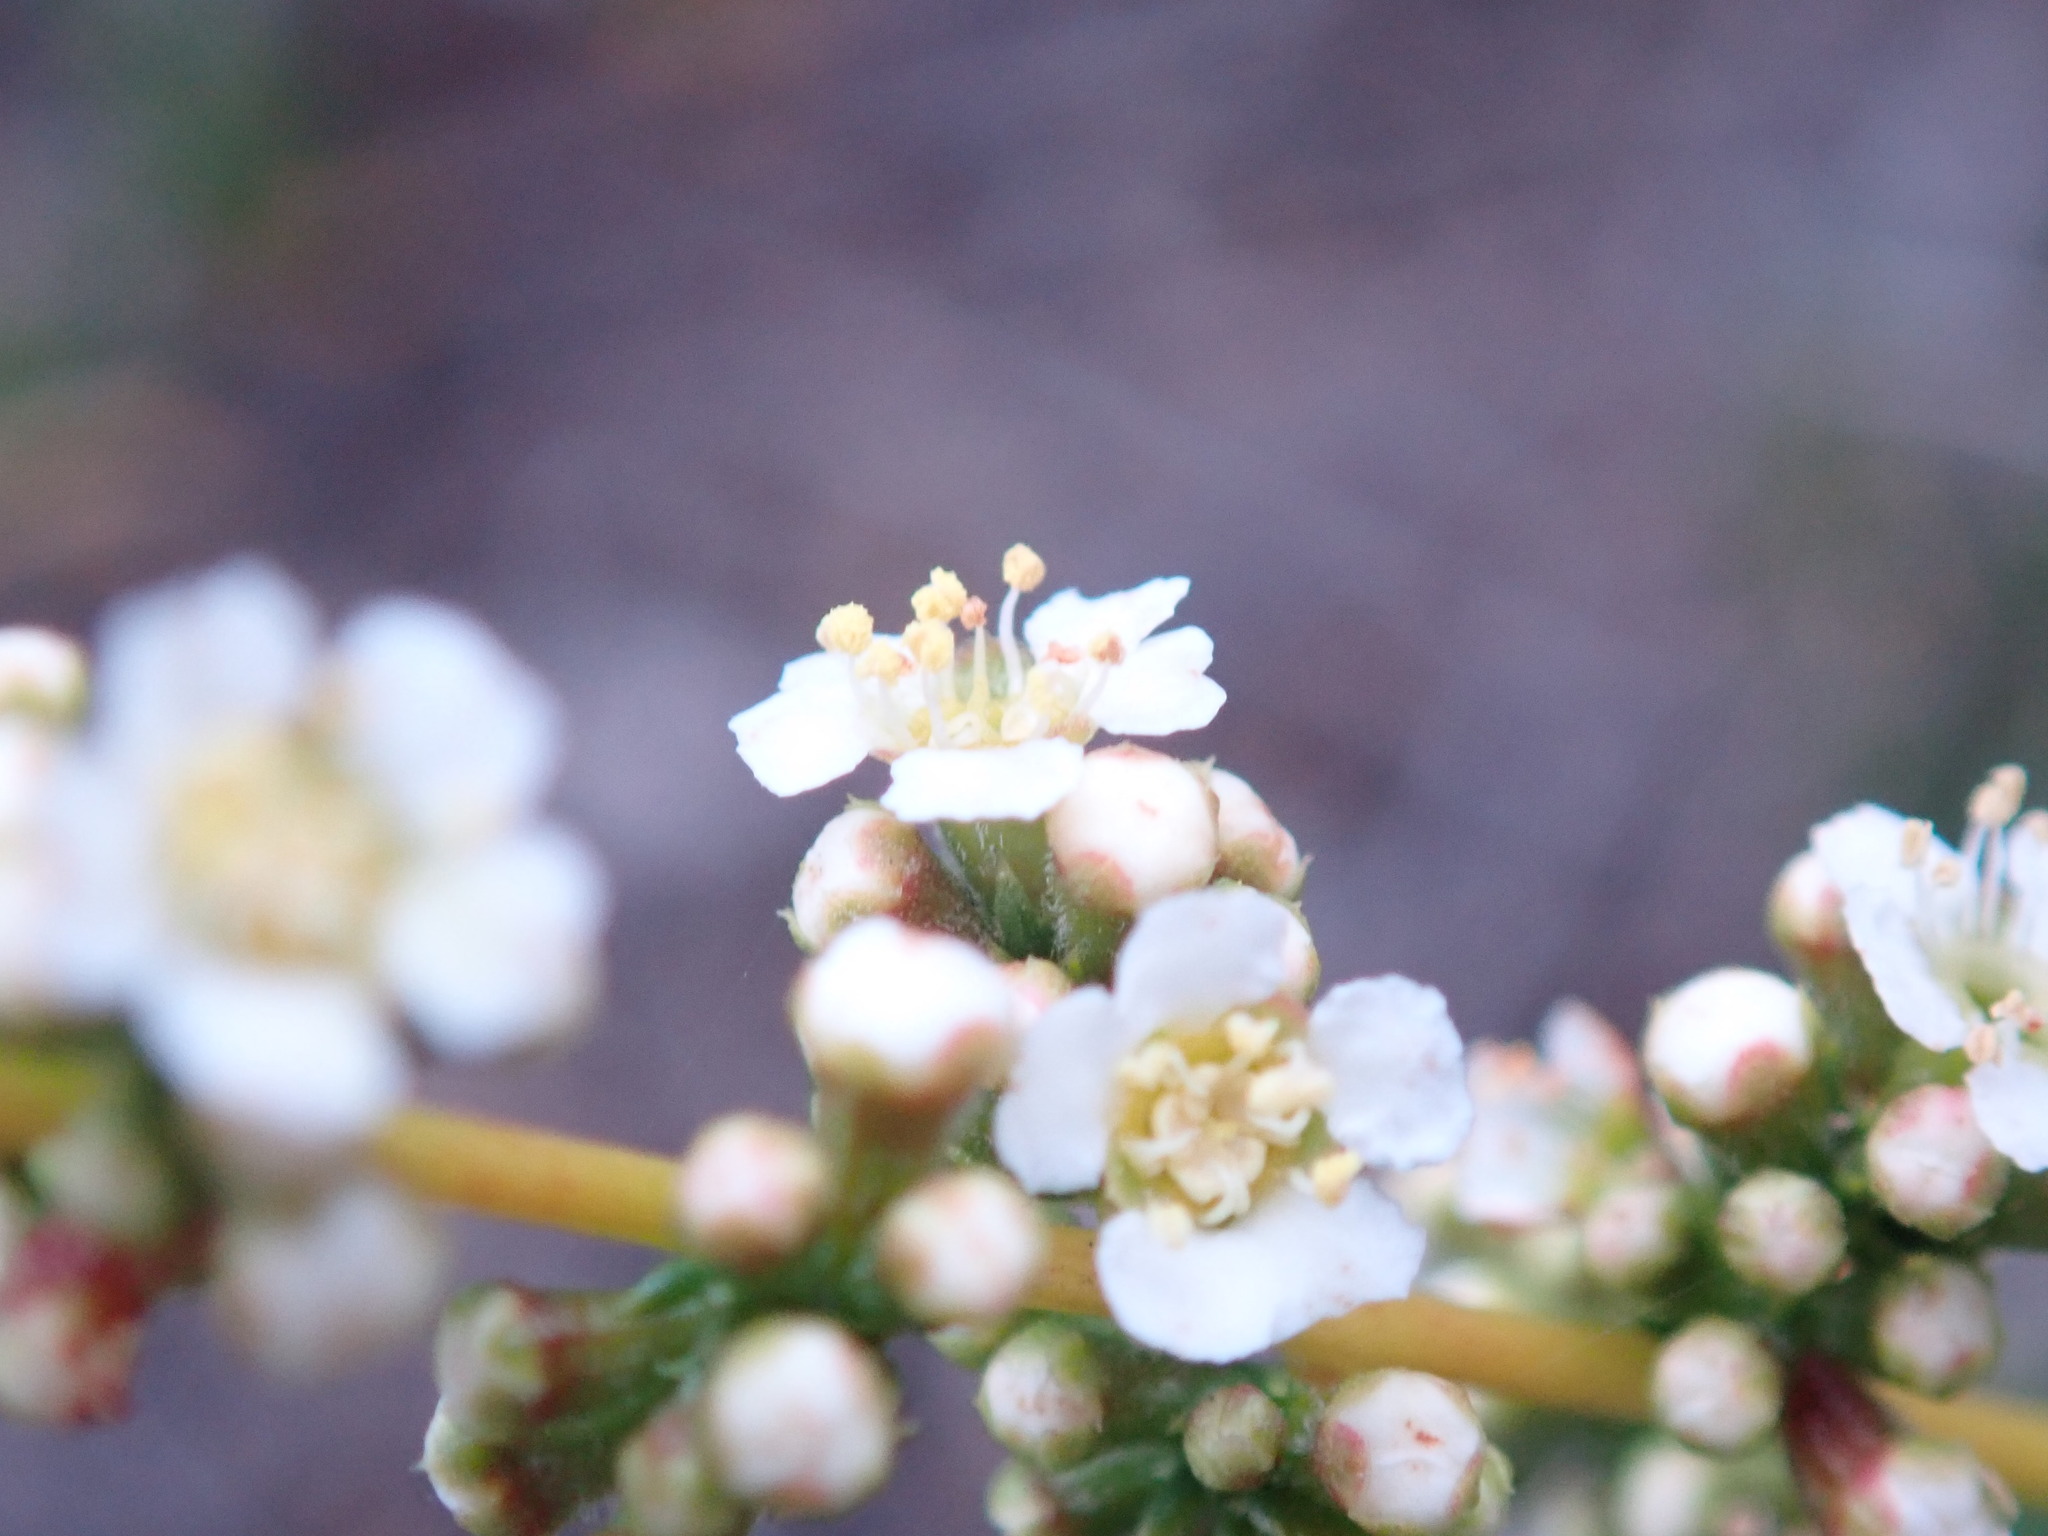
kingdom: Plantae
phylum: Tracheophyta
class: Magnoliopsida
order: Rosales
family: Rosaceae
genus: Adenostoma
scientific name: Adenostoma fasciculatum
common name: Chamise
